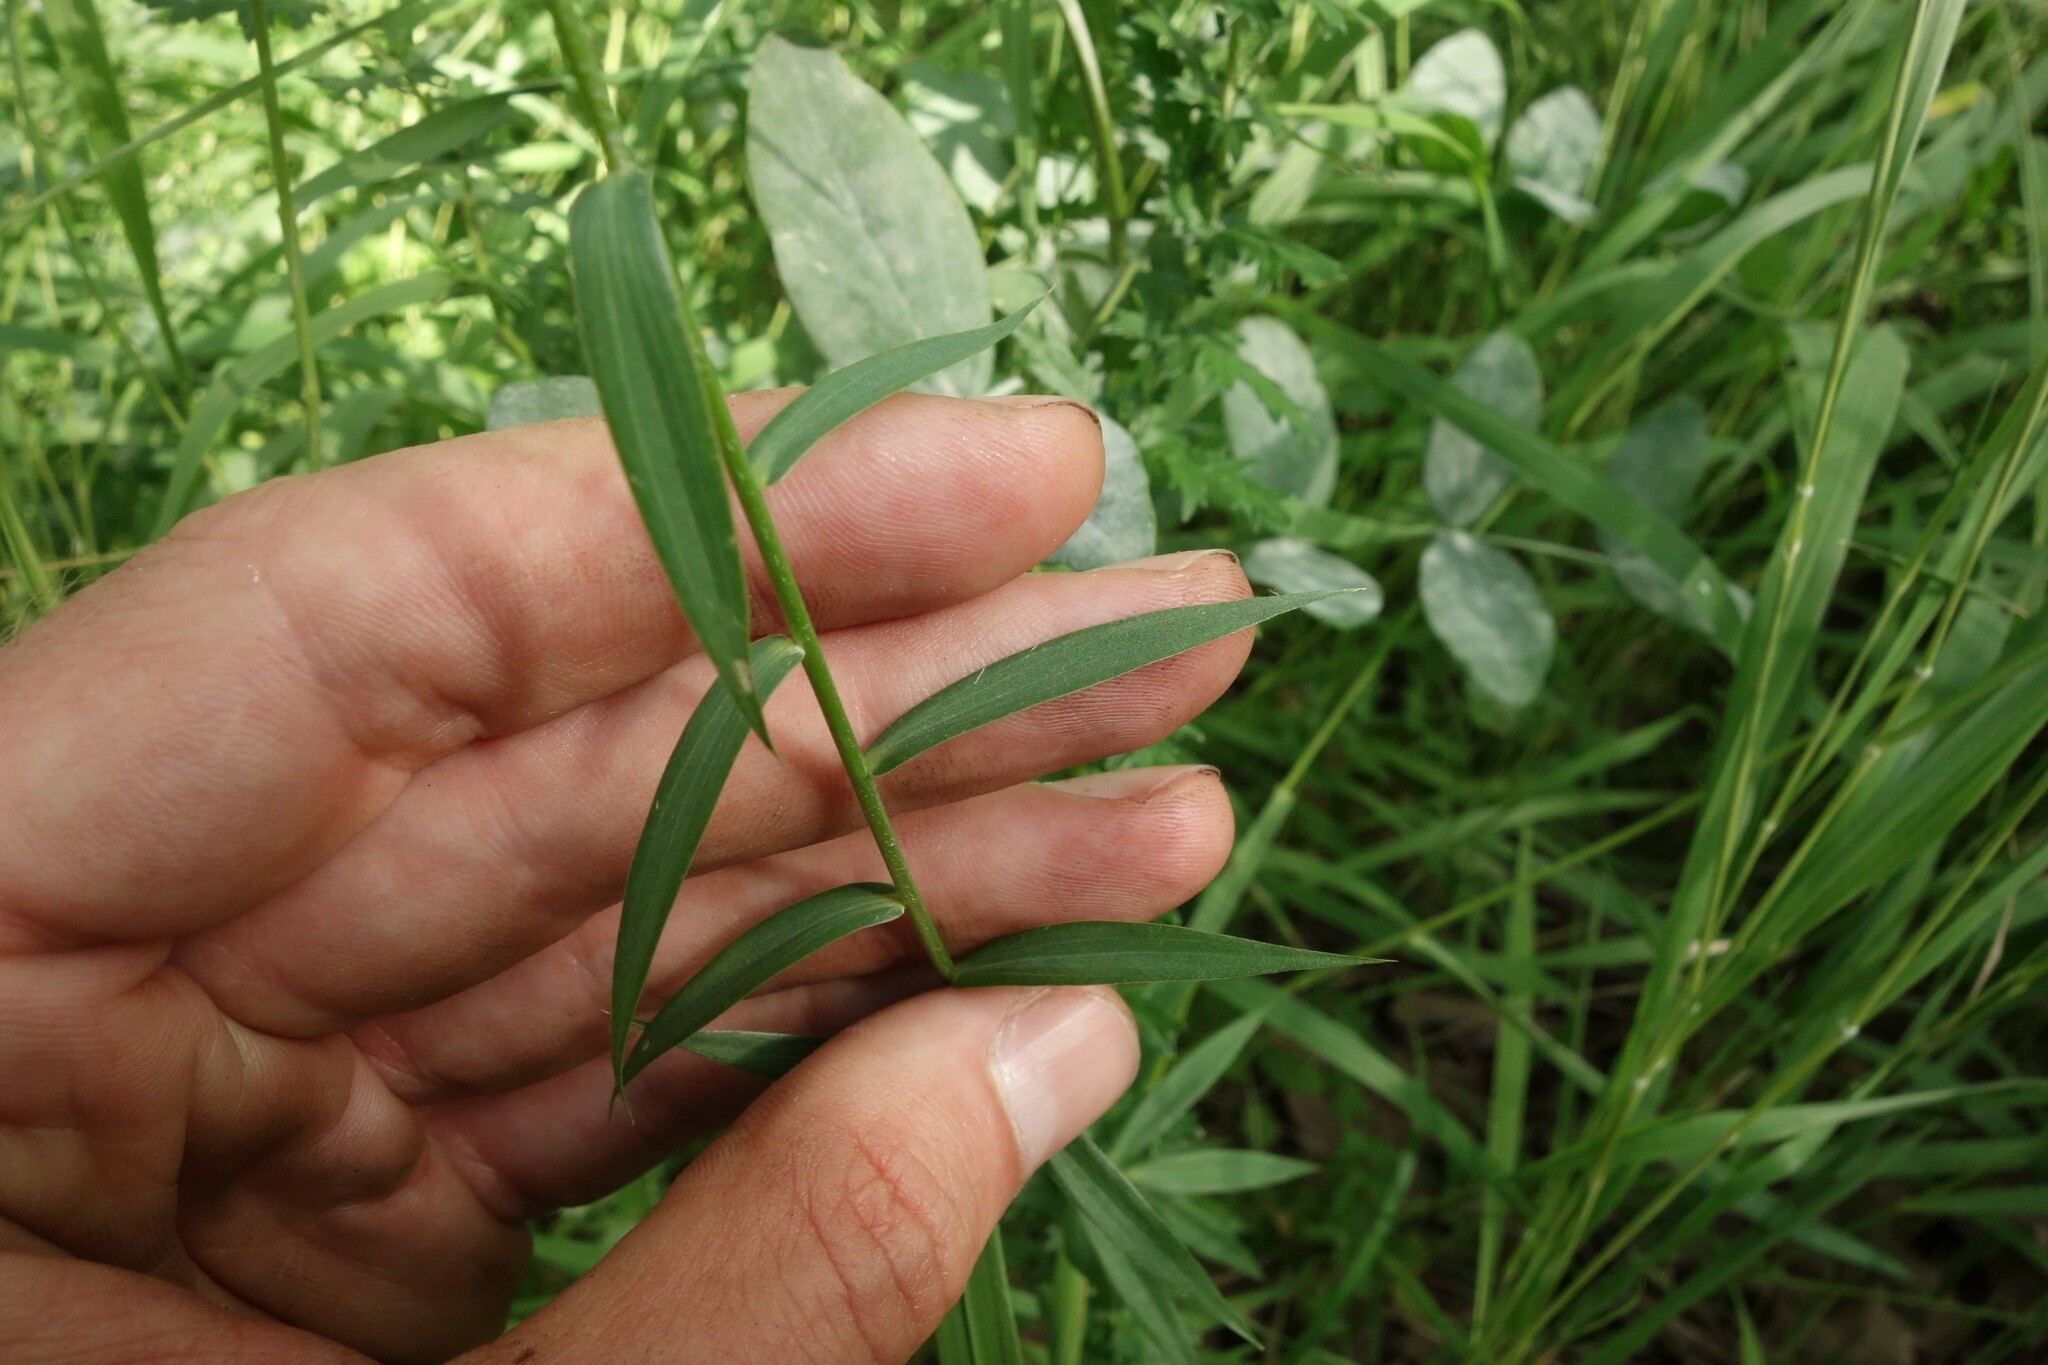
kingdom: Plantae
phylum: Tracheophyta
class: Magnoliopsida
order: Malpighiales
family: Linaceae
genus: Linum
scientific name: Linum nervosum
